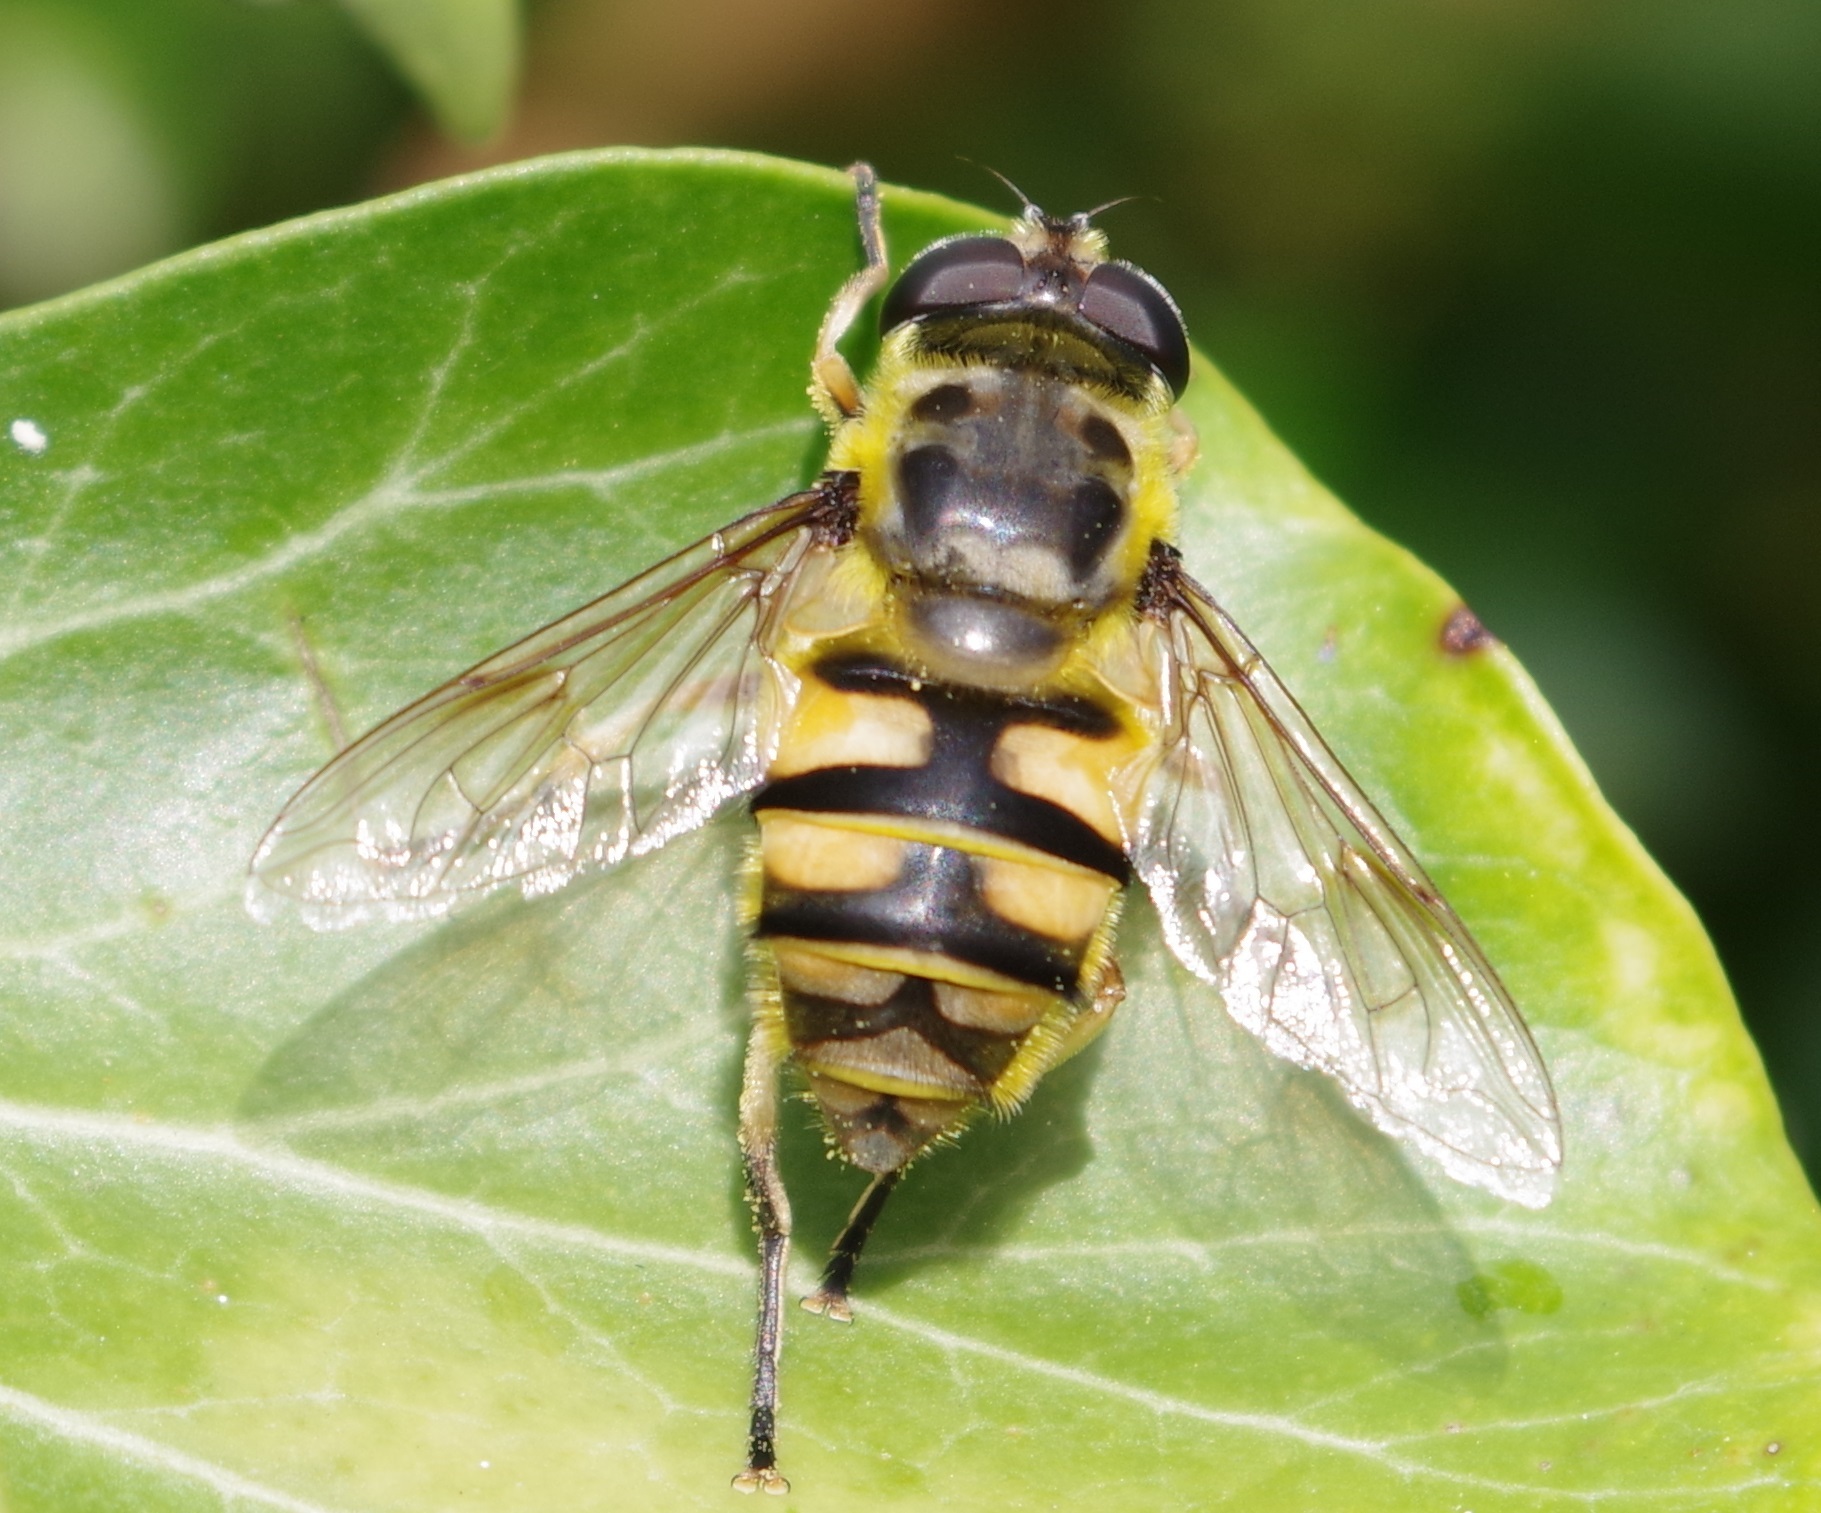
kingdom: Animalia
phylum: Arthropoda
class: Insecta
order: Diptera
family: Syrphidae
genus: Myathropa
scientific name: Myathropa florea
